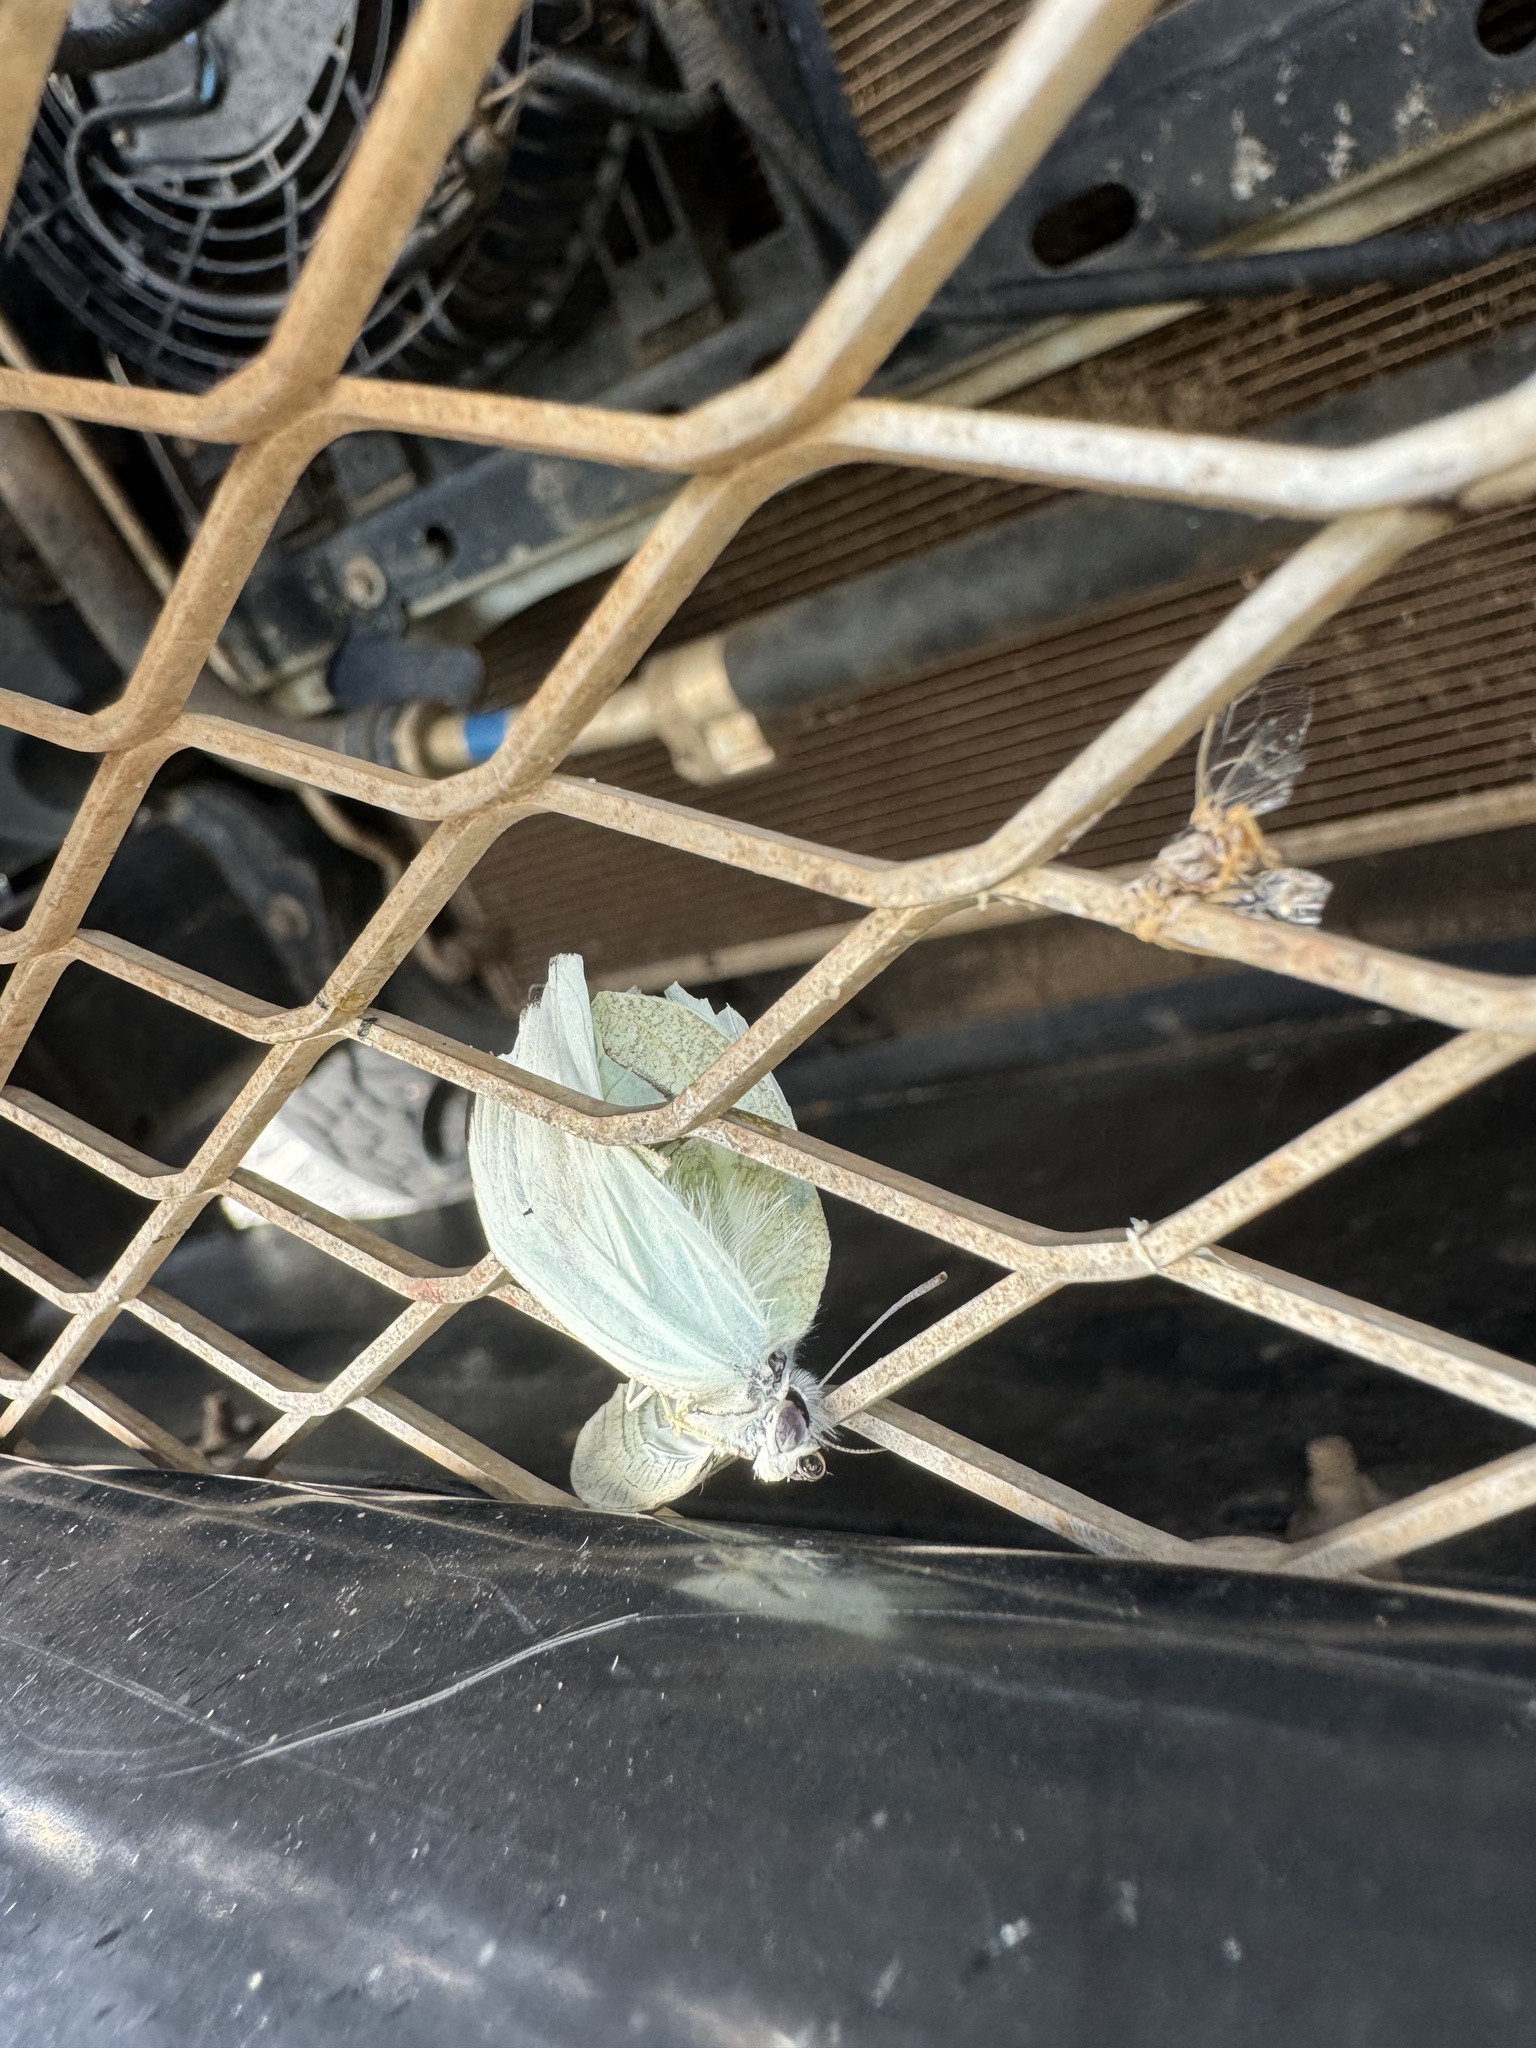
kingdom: Animalia
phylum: Arthropoda
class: Insecta
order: Lepidoptera
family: Pieridae
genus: Elodina
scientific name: Elodina parthia
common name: Chalk white
